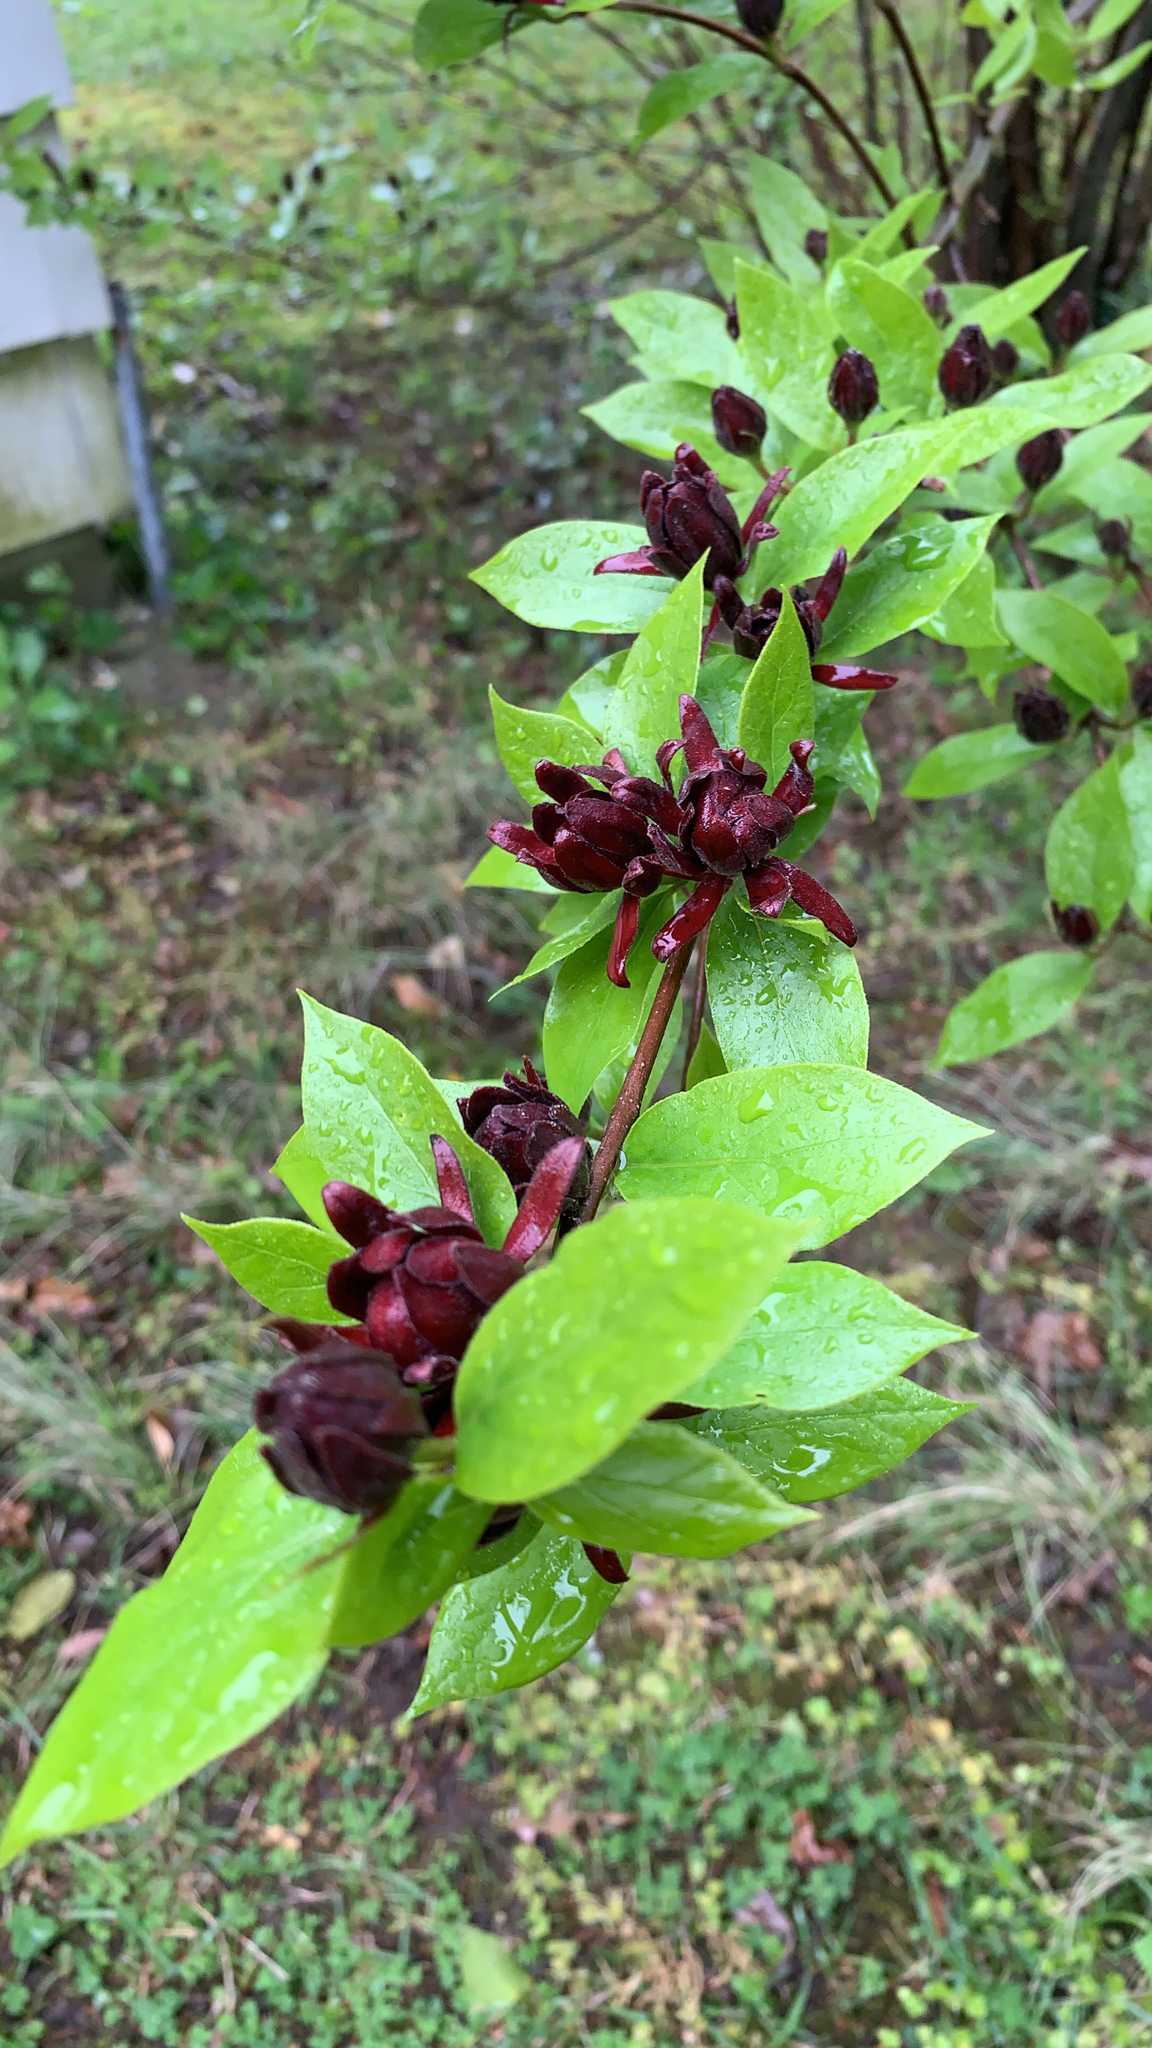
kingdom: Plantae
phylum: Tracheophyta
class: Magnoliopsida
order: Laurales
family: Calycanthaceae
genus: Calycanthus
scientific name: Calycanthus floridus
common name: Carolina-allspice
